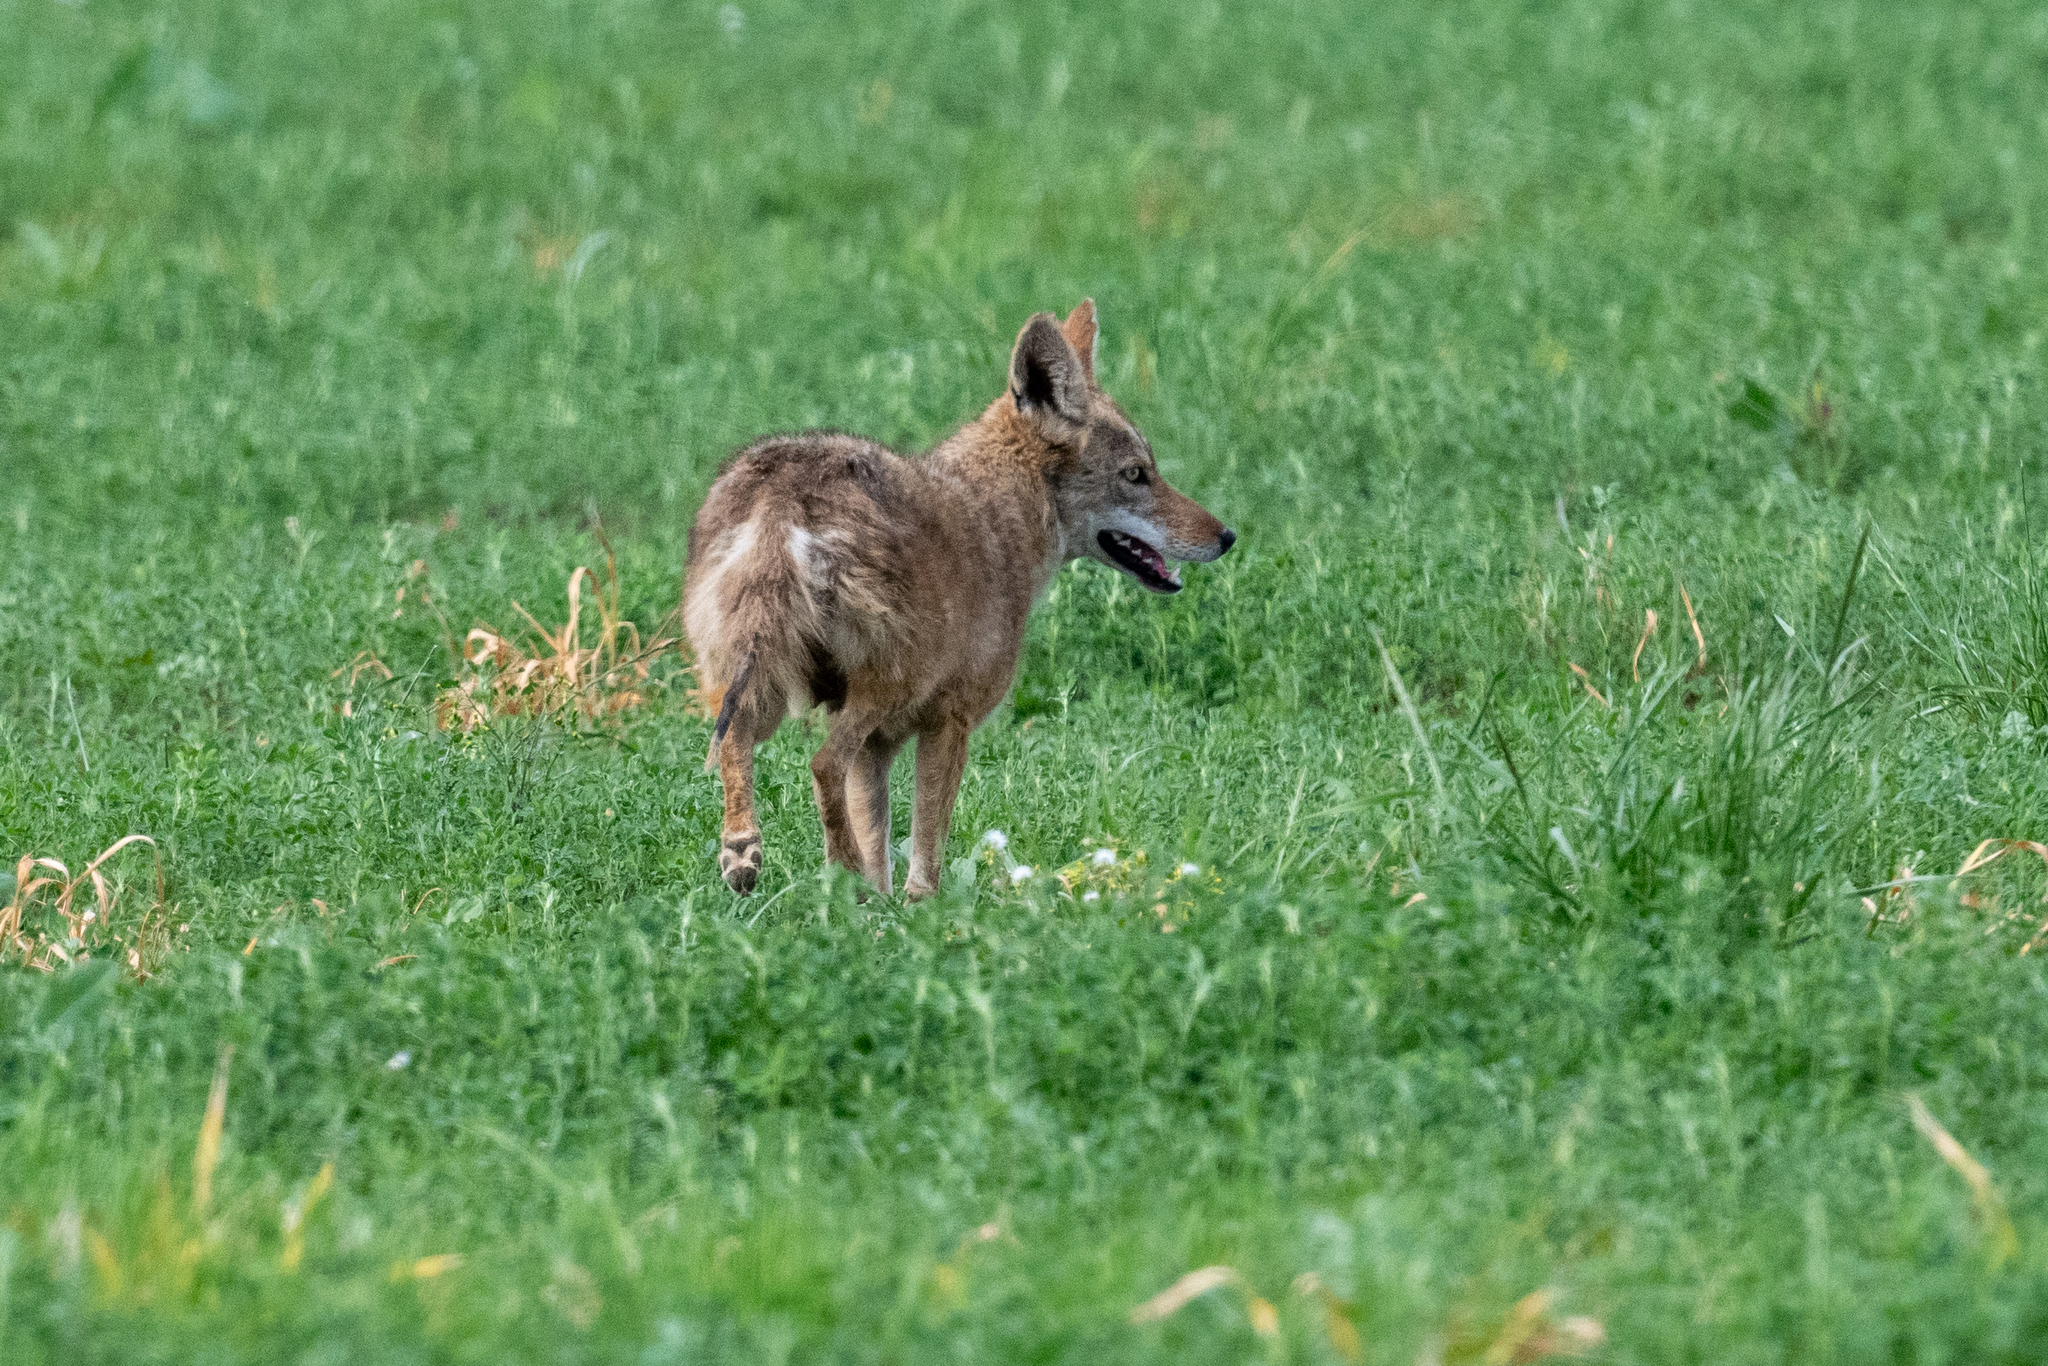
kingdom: Animalia
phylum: Chordata
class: Mammalia
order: Carnivora
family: Canidae
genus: Canis
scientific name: Canis latrans
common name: Coyote
